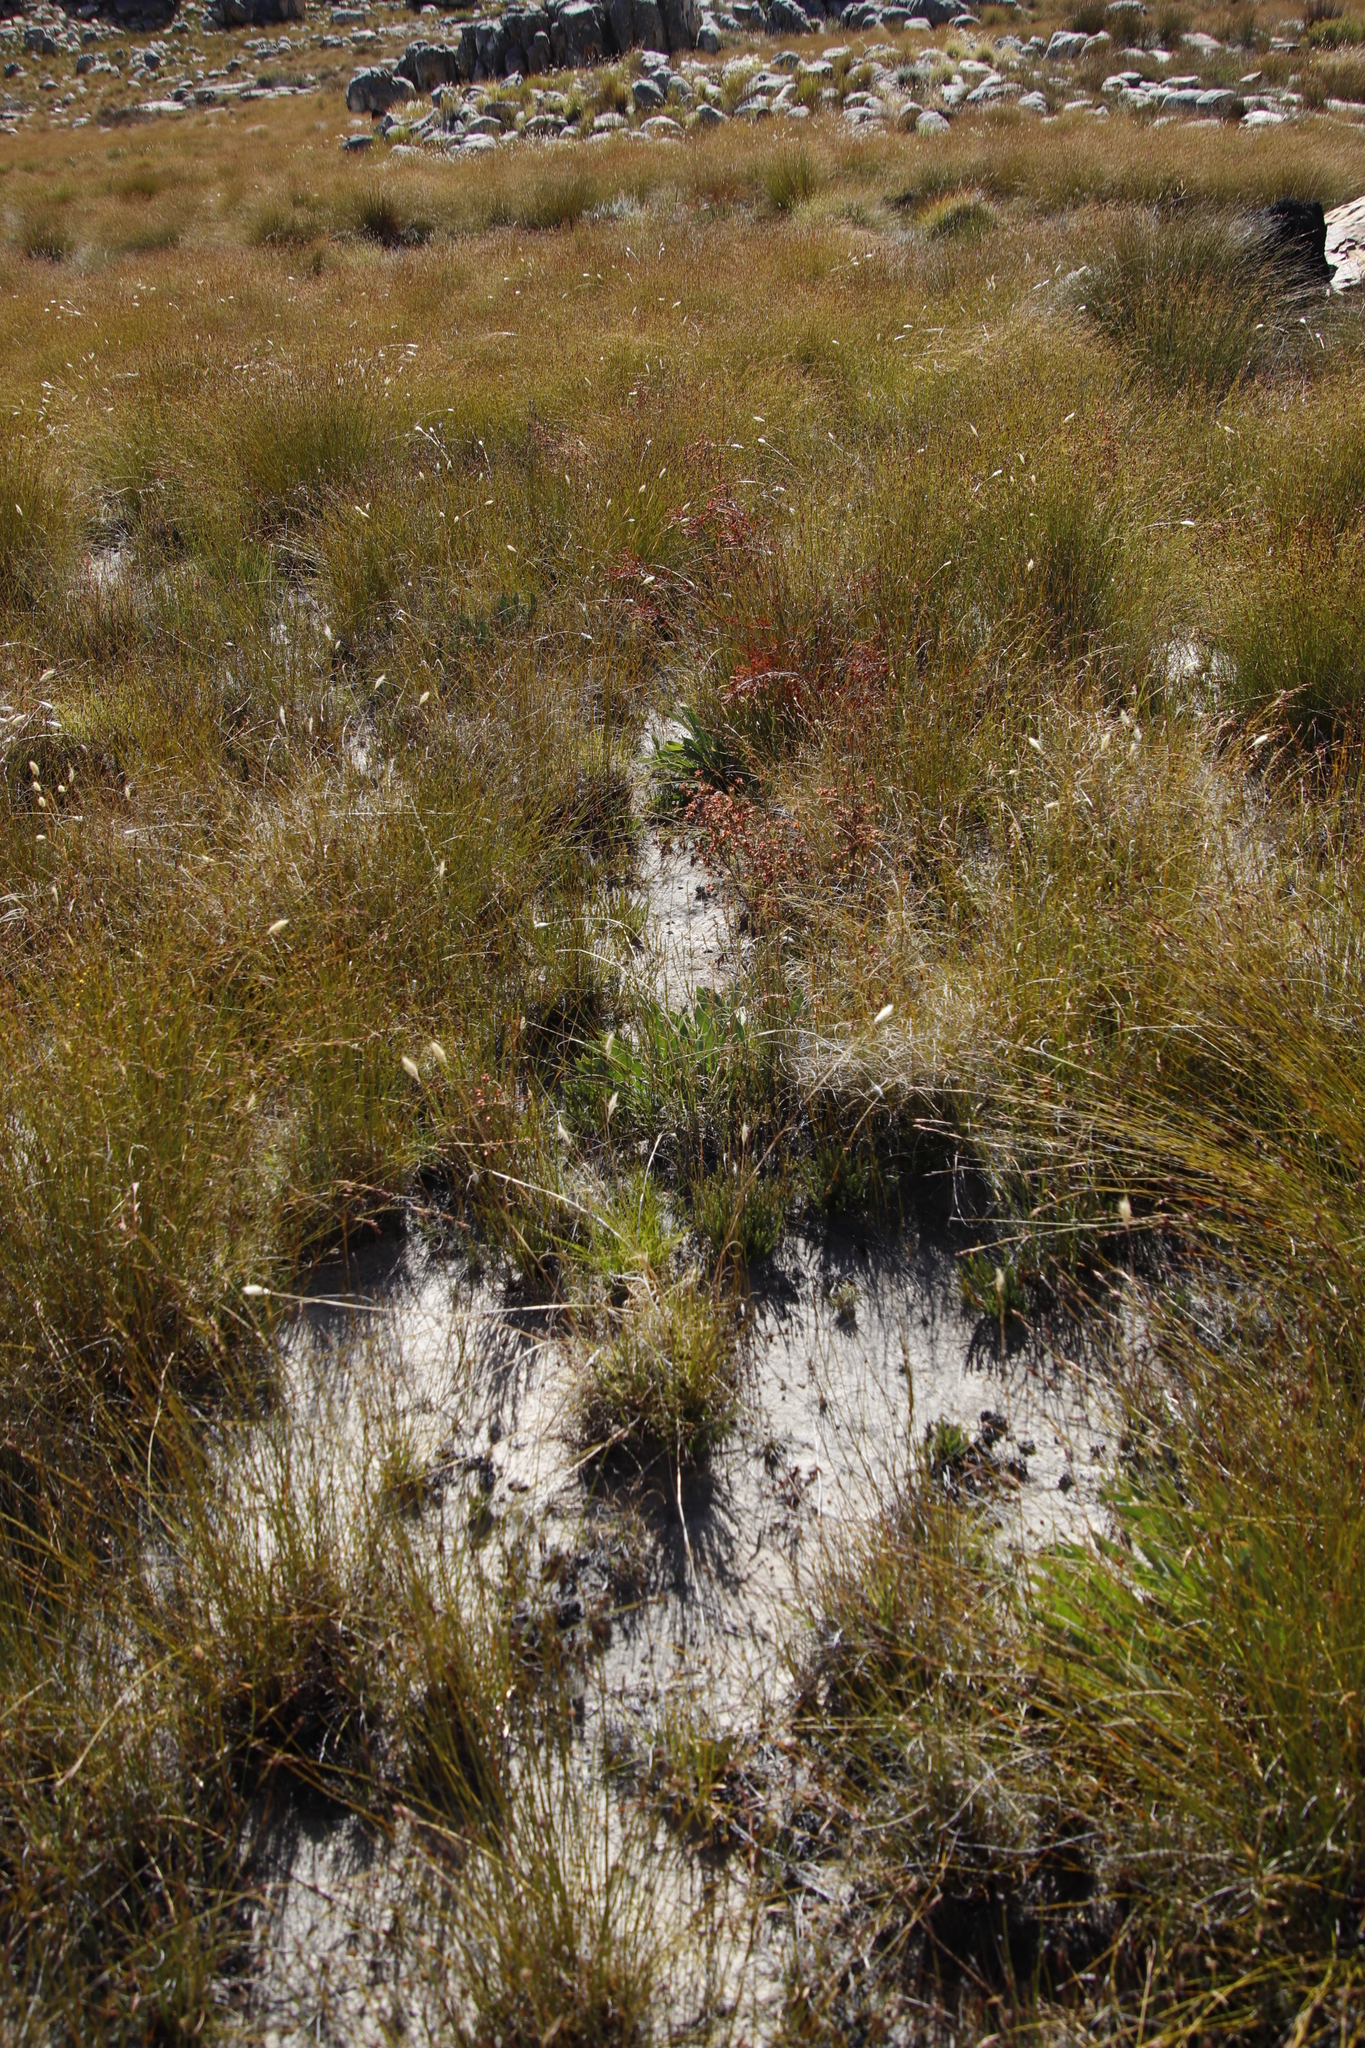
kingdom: Plantae
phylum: Tracheophyta
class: Magnoliopsida
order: Proteales
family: Proteaceae
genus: Protea
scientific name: Protea laevis
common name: Smooth-leaf sugarbush
